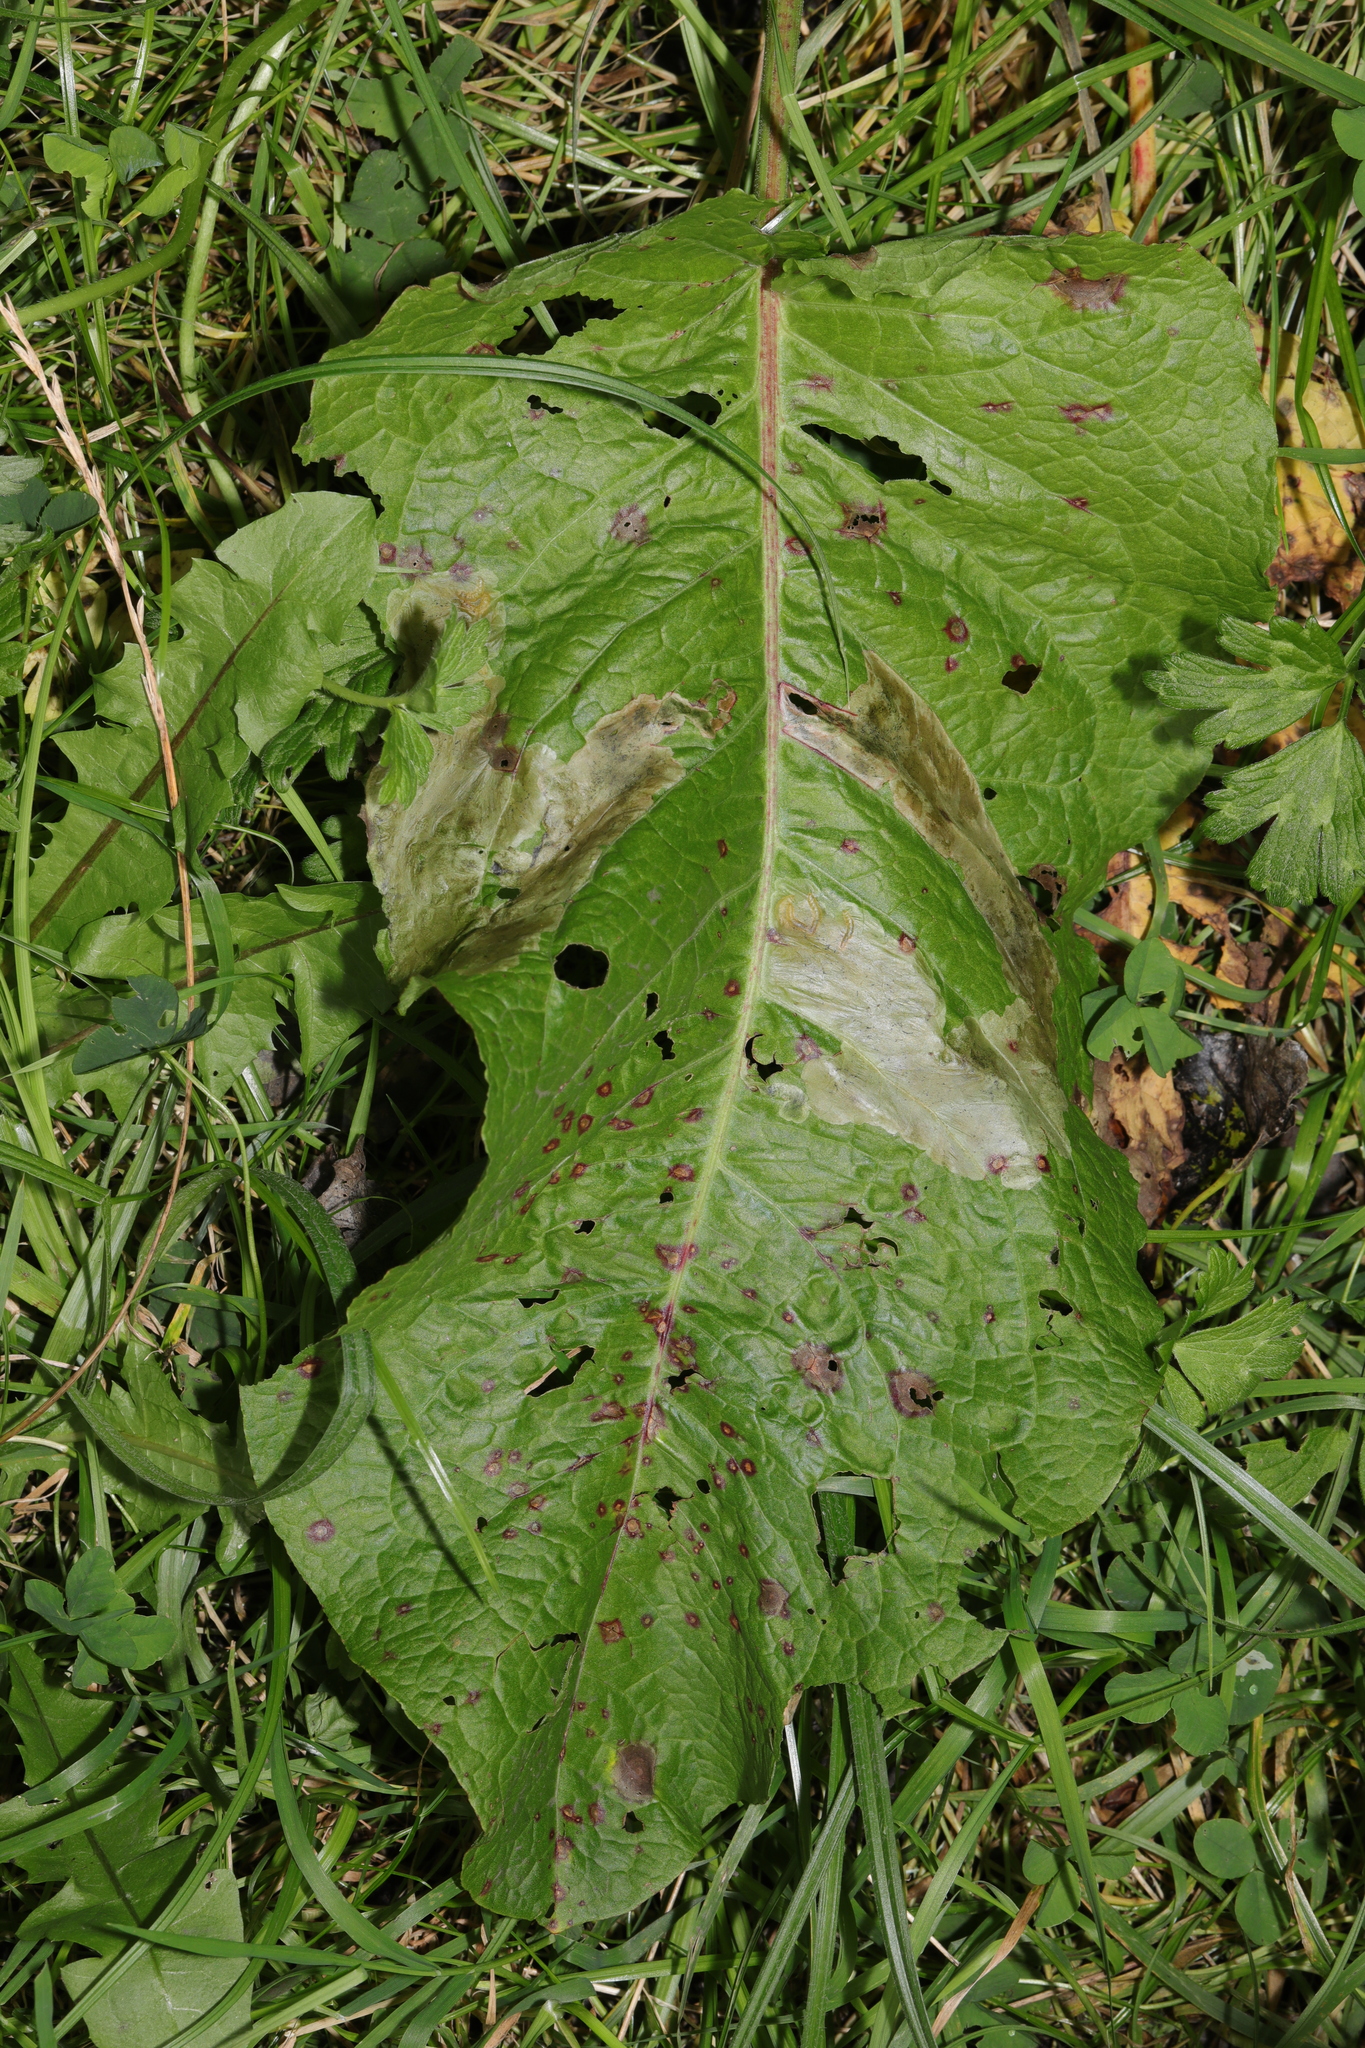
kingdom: Plantae
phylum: Tracheophyta
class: Magnoliopsida
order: Caryophyllales
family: Polygonaceae
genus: Rumex
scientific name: Rumex obtusifolius
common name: Bitter dock
